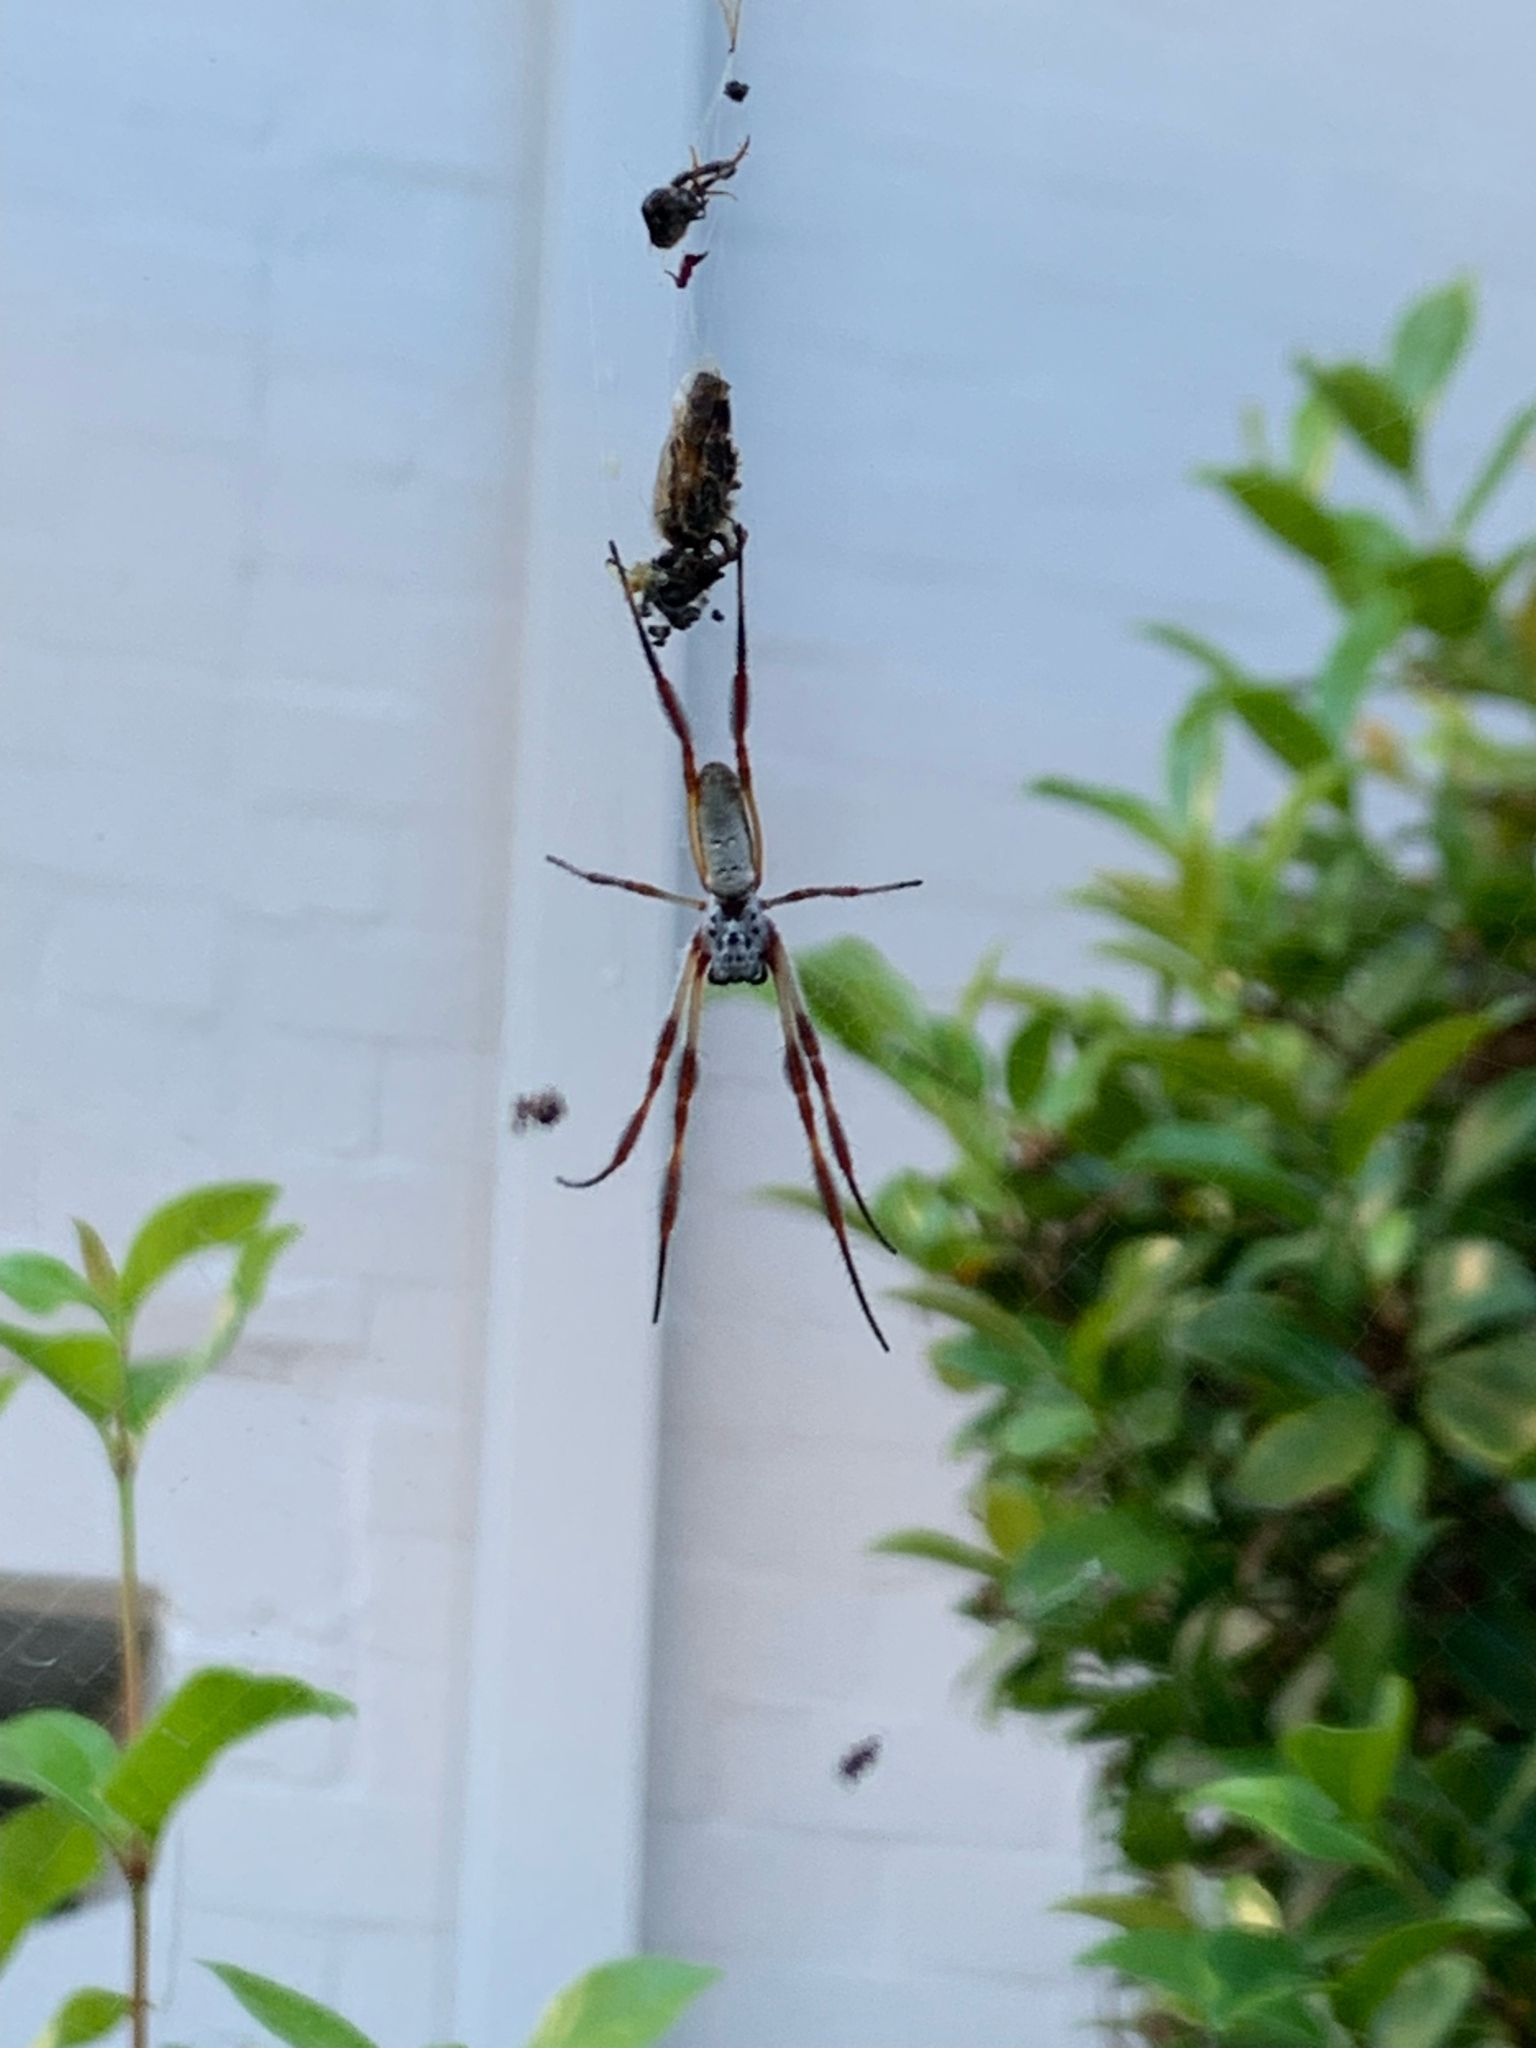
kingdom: Animalia
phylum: Arthropoda
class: Arachnida
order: Araneae
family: Araneidae
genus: Trichonephila
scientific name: Trichonephila edulis
